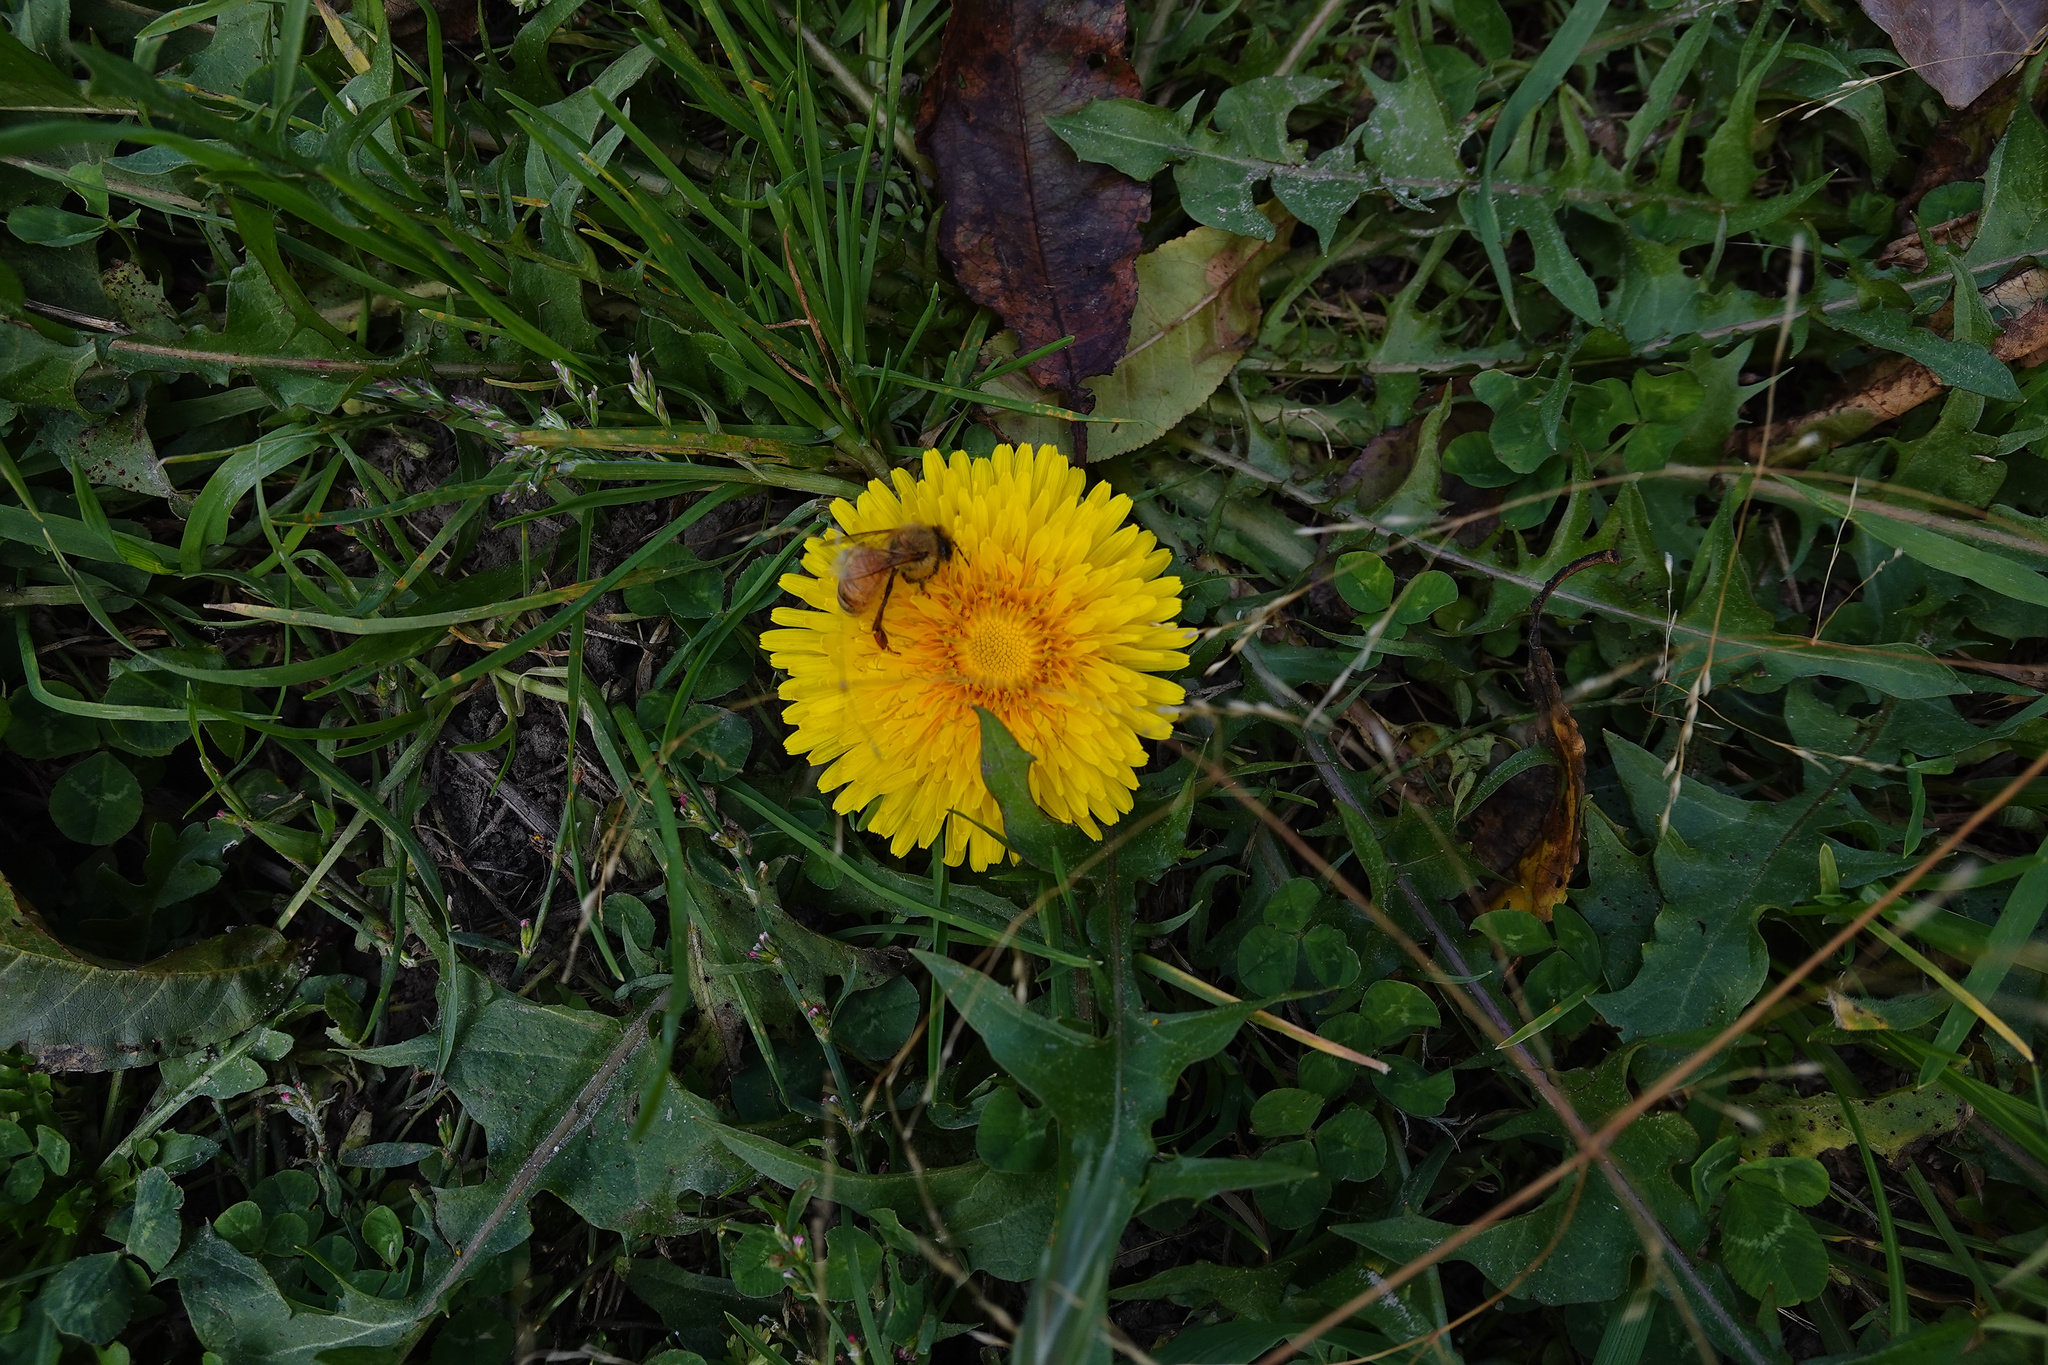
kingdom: Animalia
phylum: Arthropoda
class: Insecta
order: Hymenoptera
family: Apidae
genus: Apis
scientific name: Apis mellifera
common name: Honey bee
